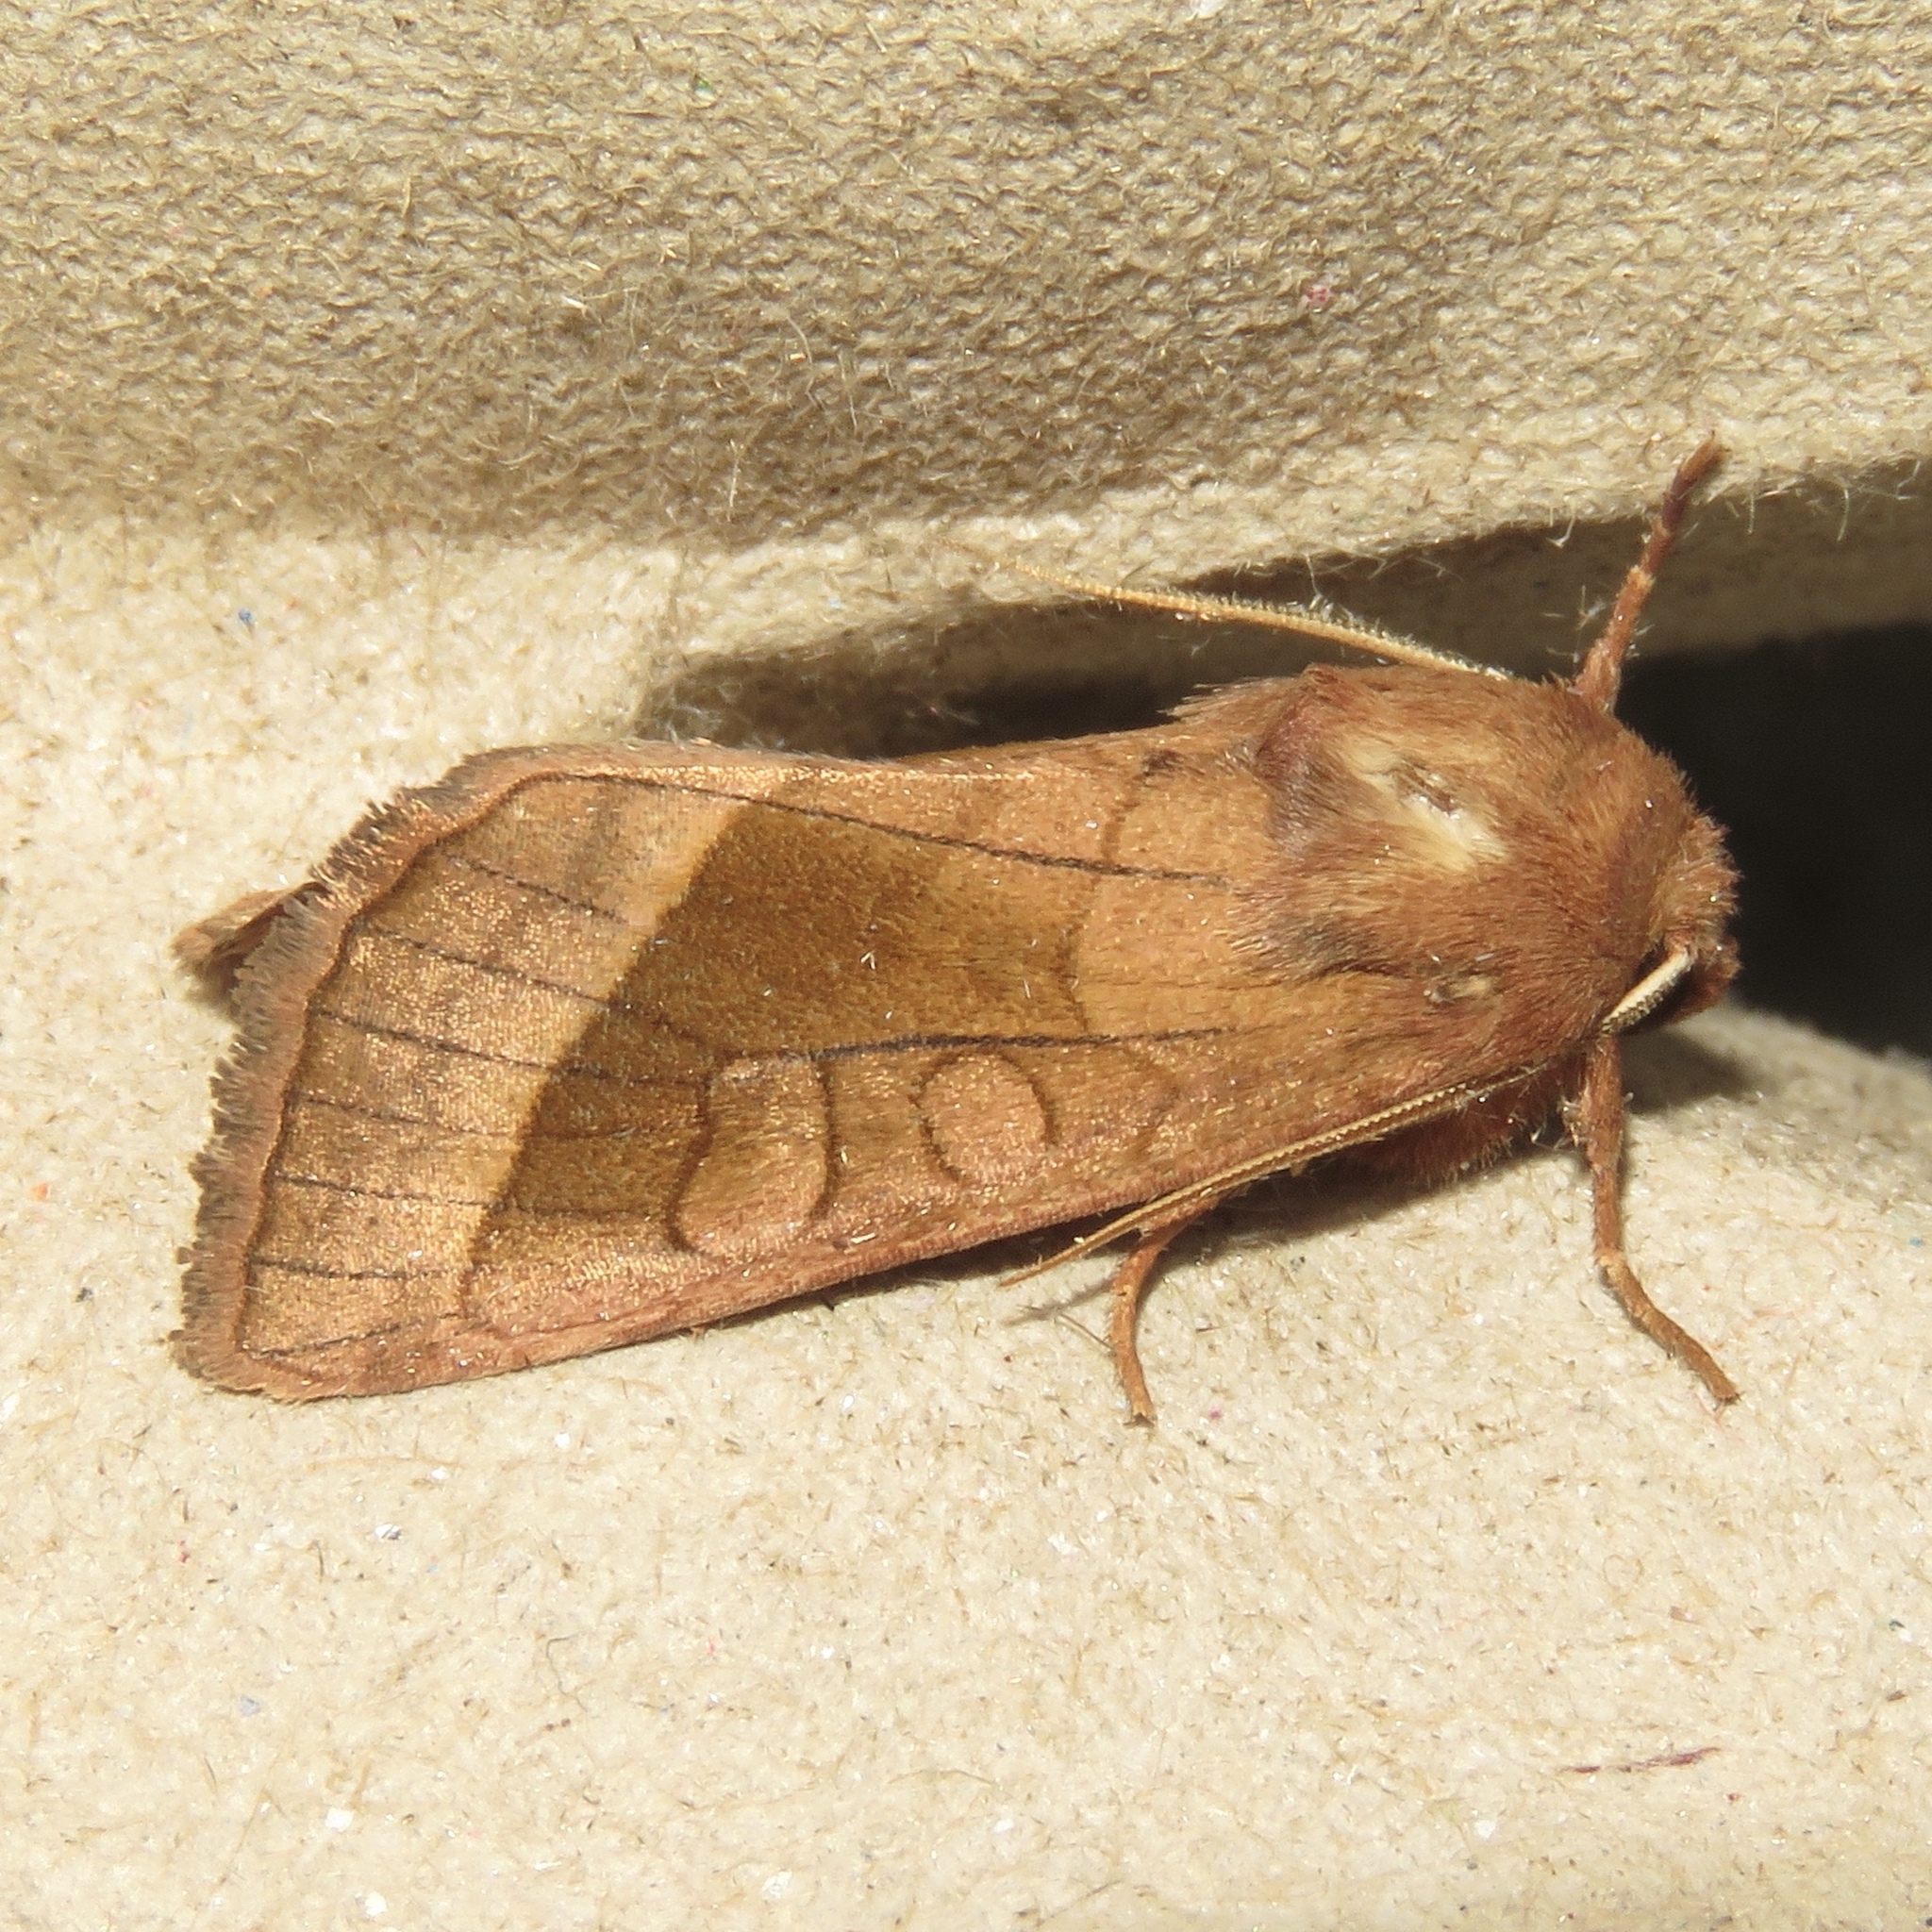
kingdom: Animalia
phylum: Arthropoda
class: Insecta
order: Lepidoptera
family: Noctuidae
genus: Hydraecia
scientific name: Hydraecia micacea
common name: Rosy rustic
